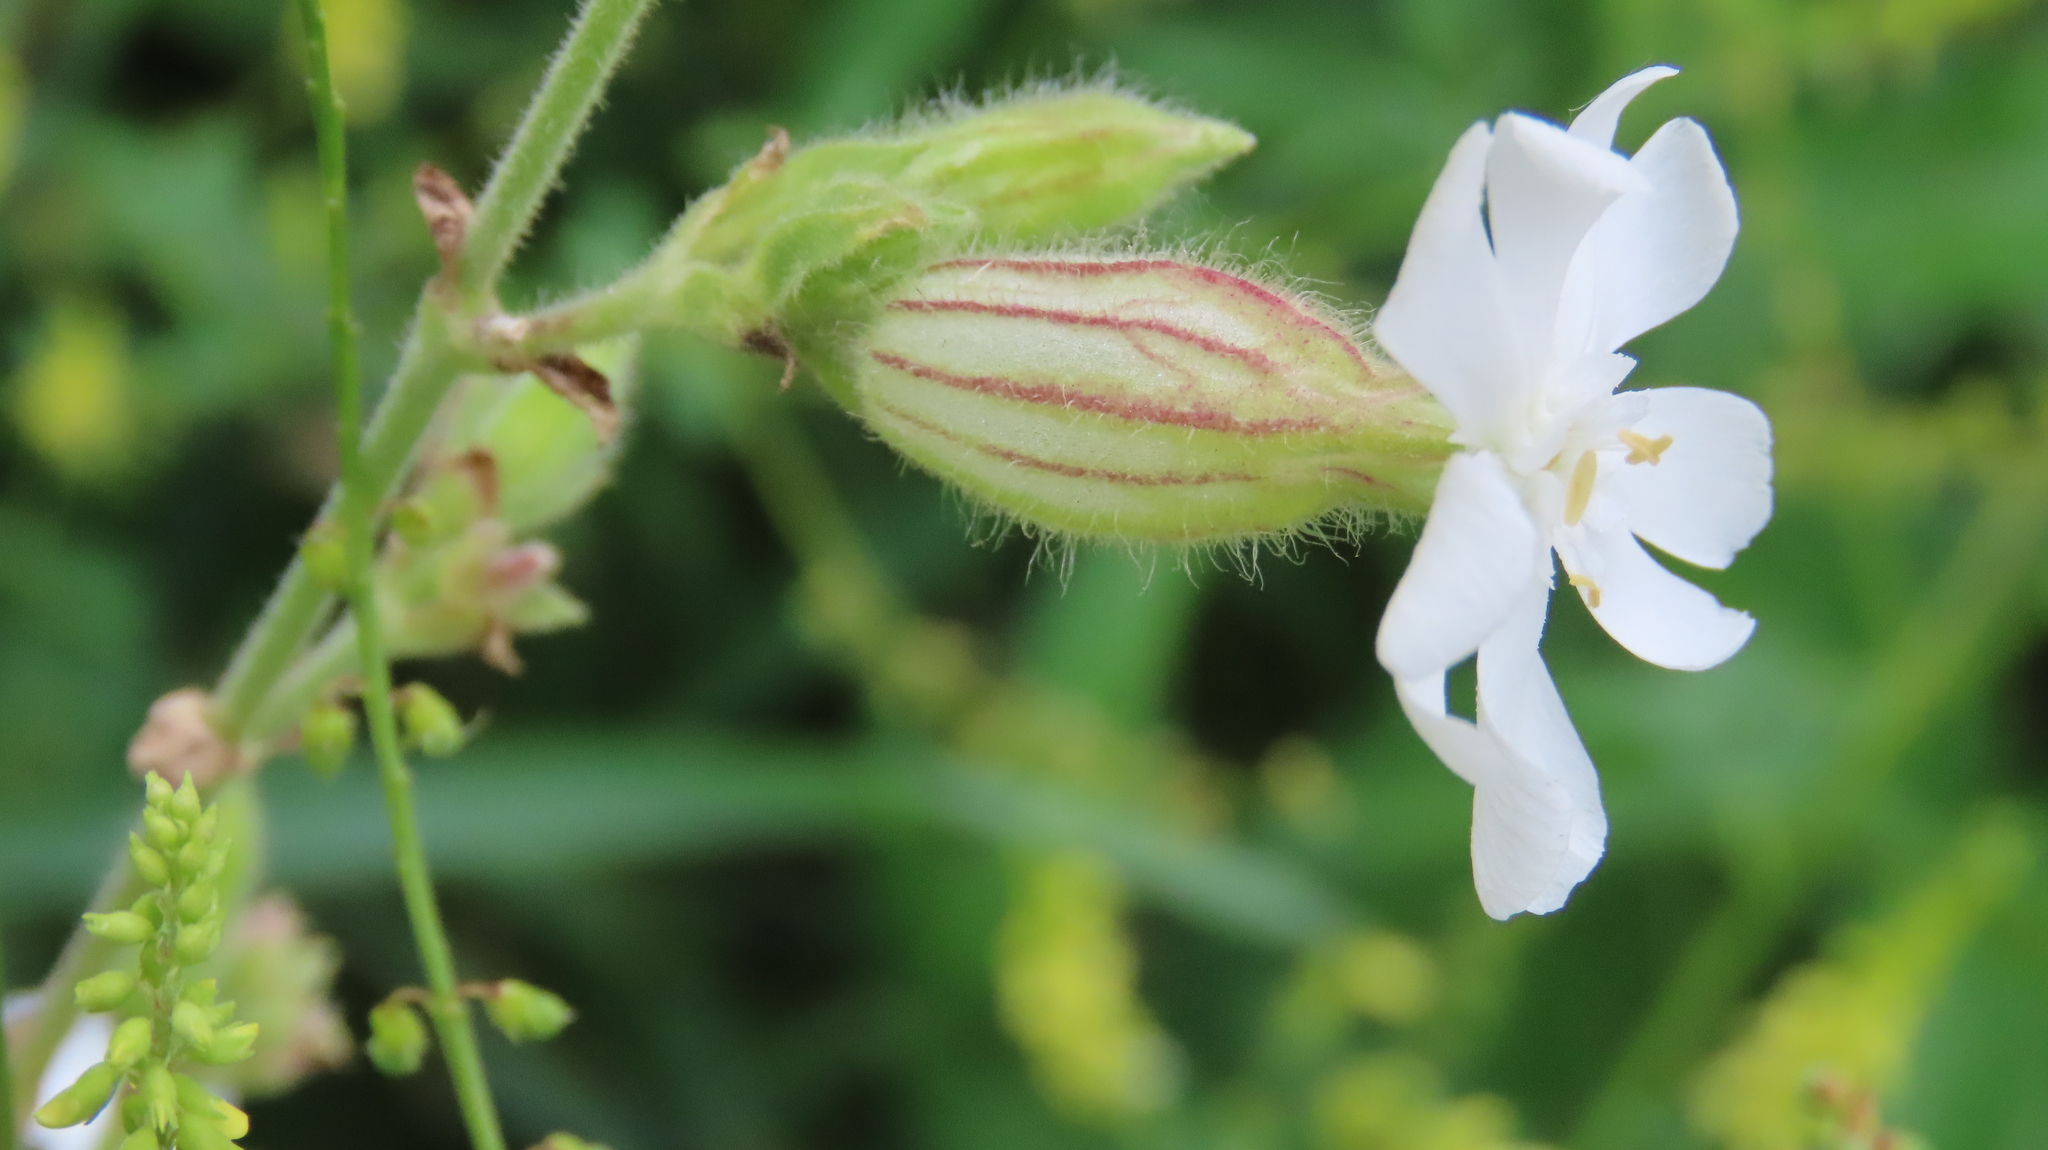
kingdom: Plantae
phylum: Tracheophyta
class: Magnoliopsida
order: Caryophyllales
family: Caryophyllaceae
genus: Silene
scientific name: Silene latifolia
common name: White campion
